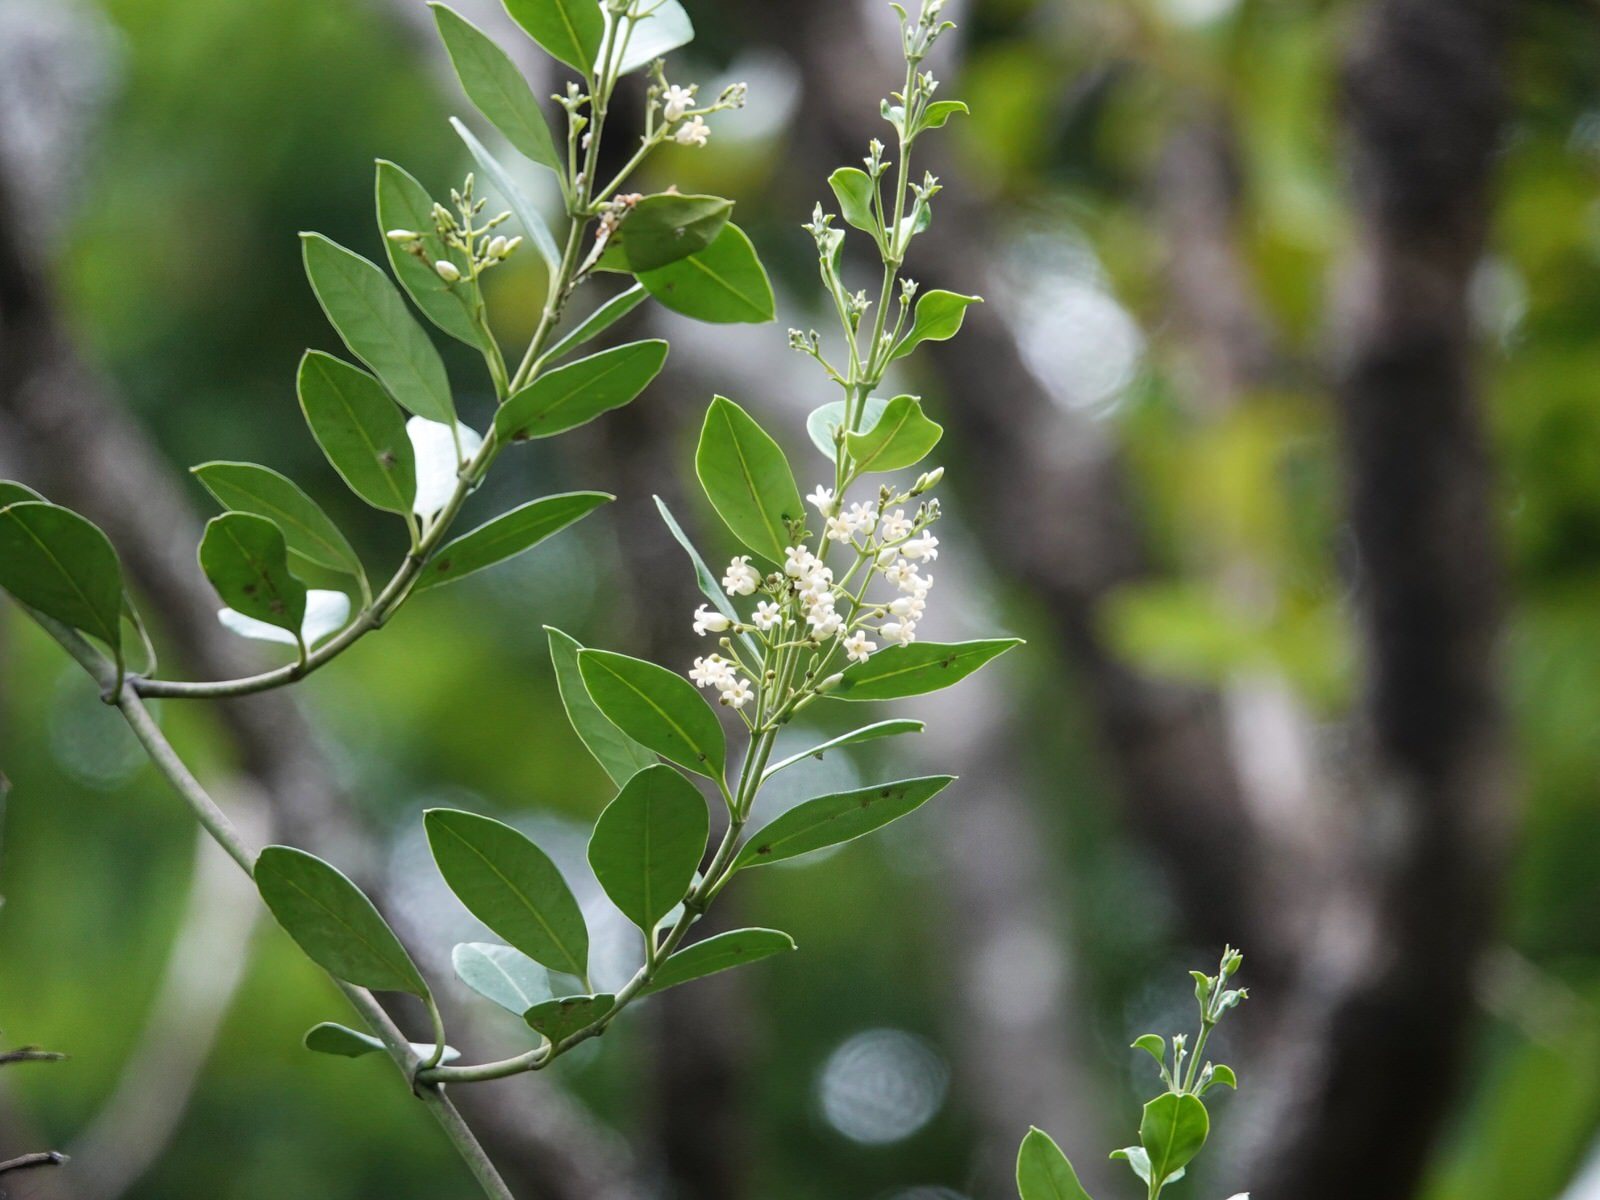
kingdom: Plantae
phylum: Tracheophyta
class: Magnoliopsida
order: Gentianales
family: Apocynaceae
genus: Parsonsia
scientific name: Parsonsia heterophylla
